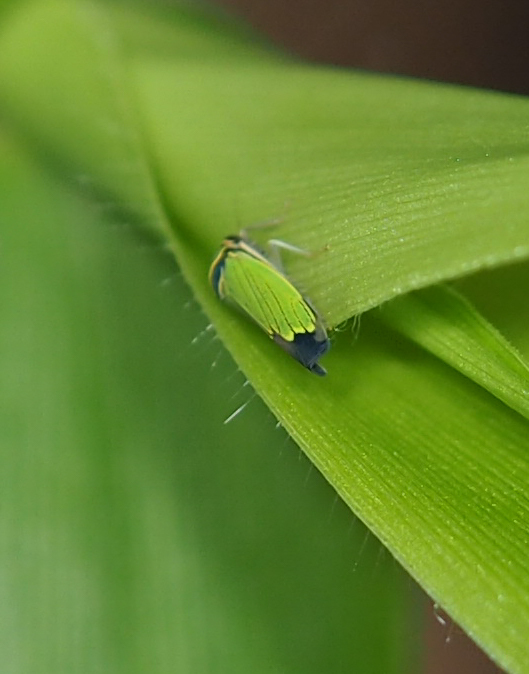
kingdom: Animalia
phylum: Arthropoda
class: Insecta
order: Hemiptera
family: Cicadellidae
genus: Tylozygus
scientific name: Tylozygus geometricus
